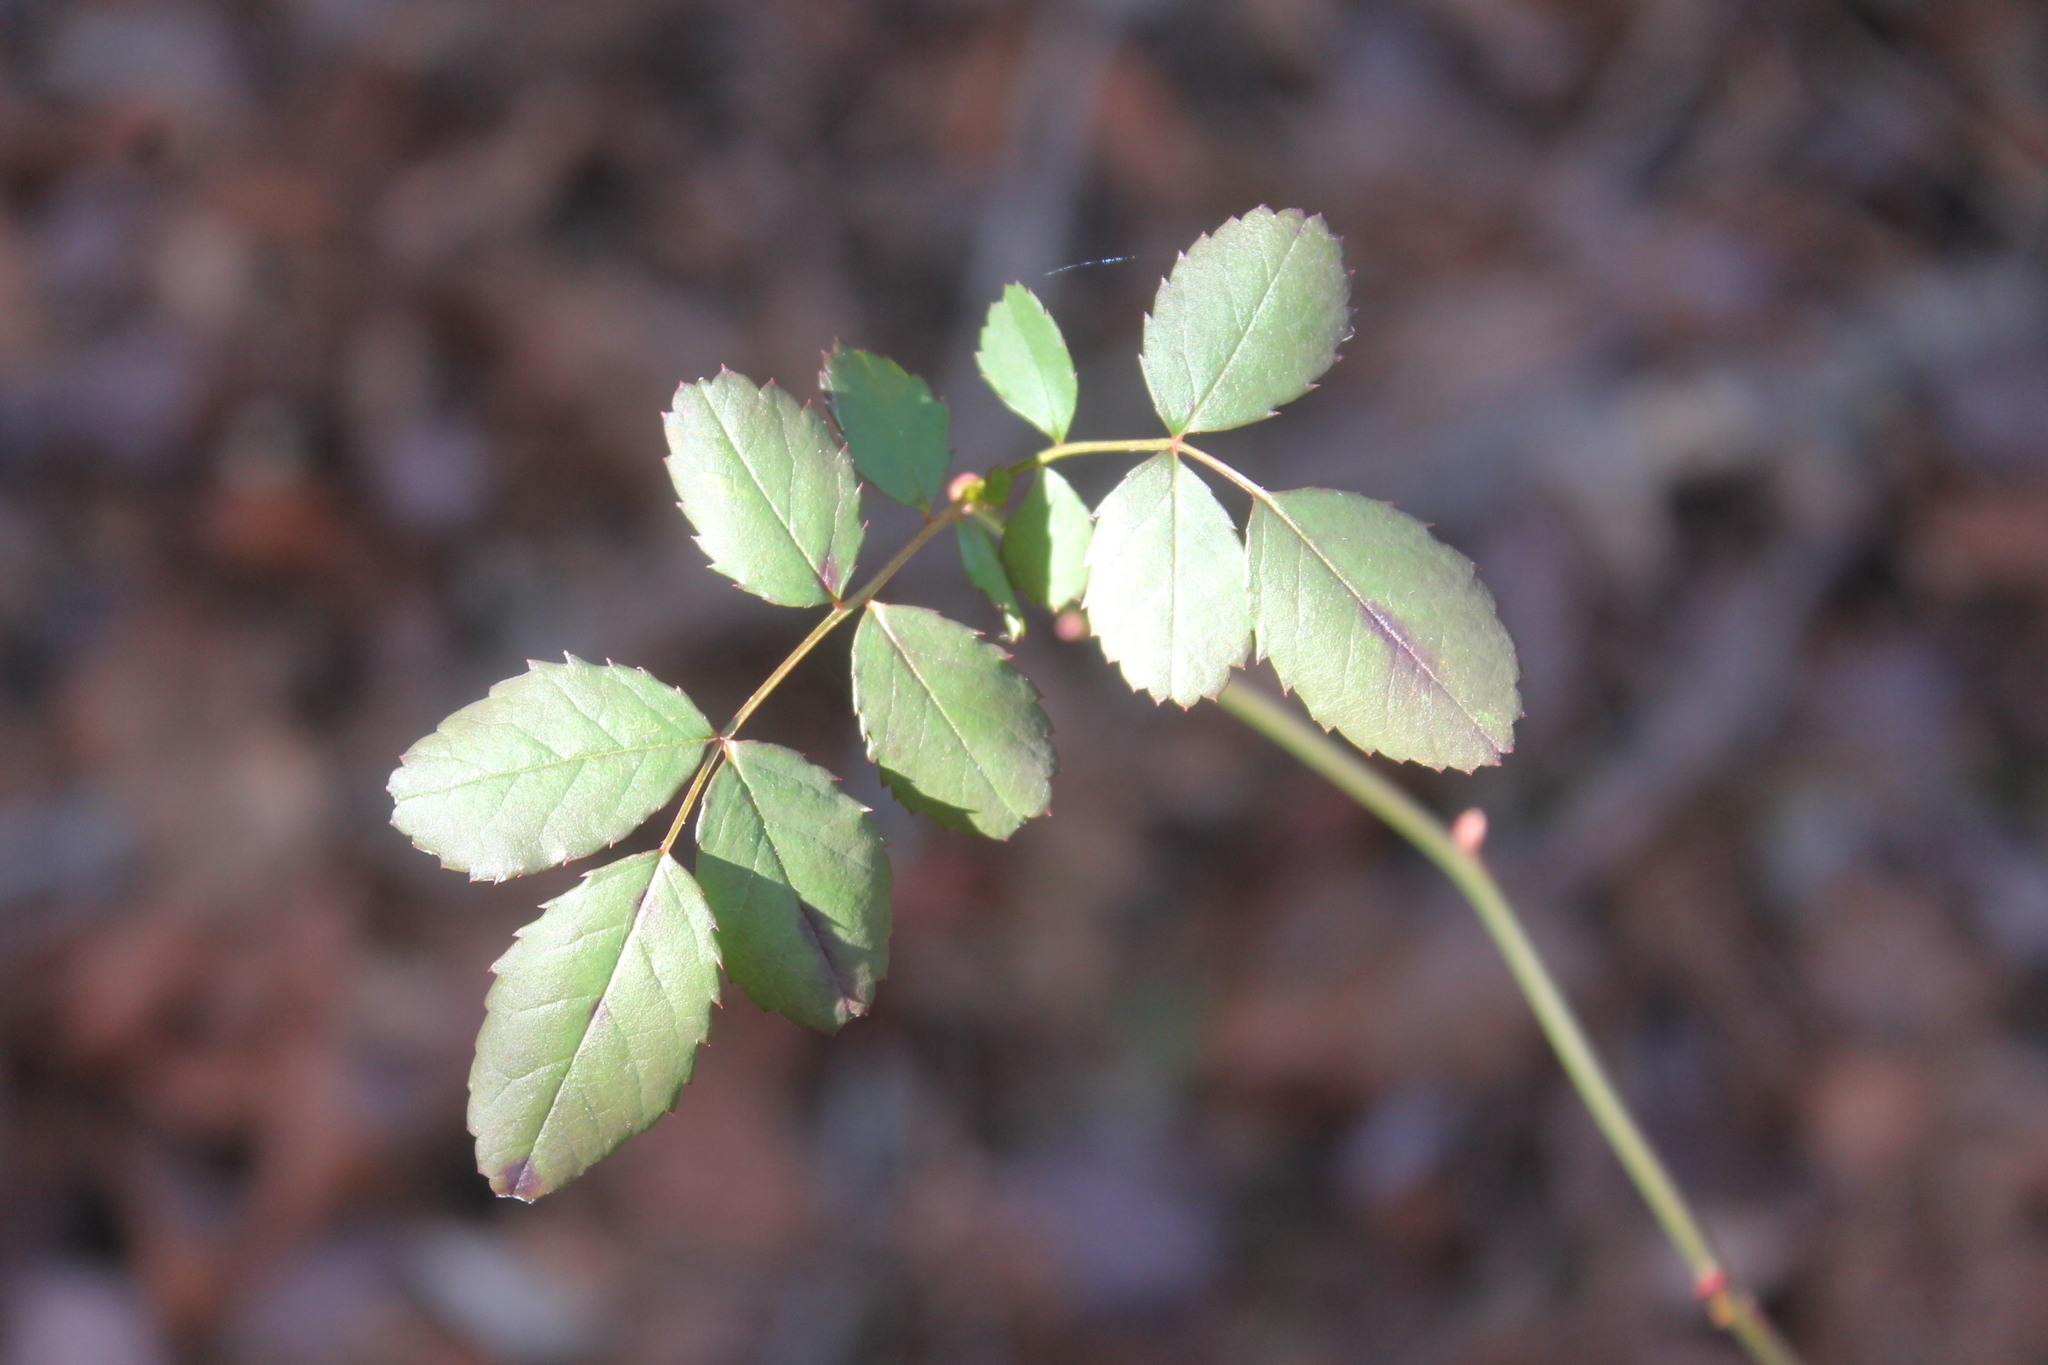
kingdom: Plantae
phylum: Tracheophyta
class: Magnoliopsida
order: Rosales
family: Rosaceae
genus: Rosa
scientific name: Rosa multiflora
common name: Multiflora rose
